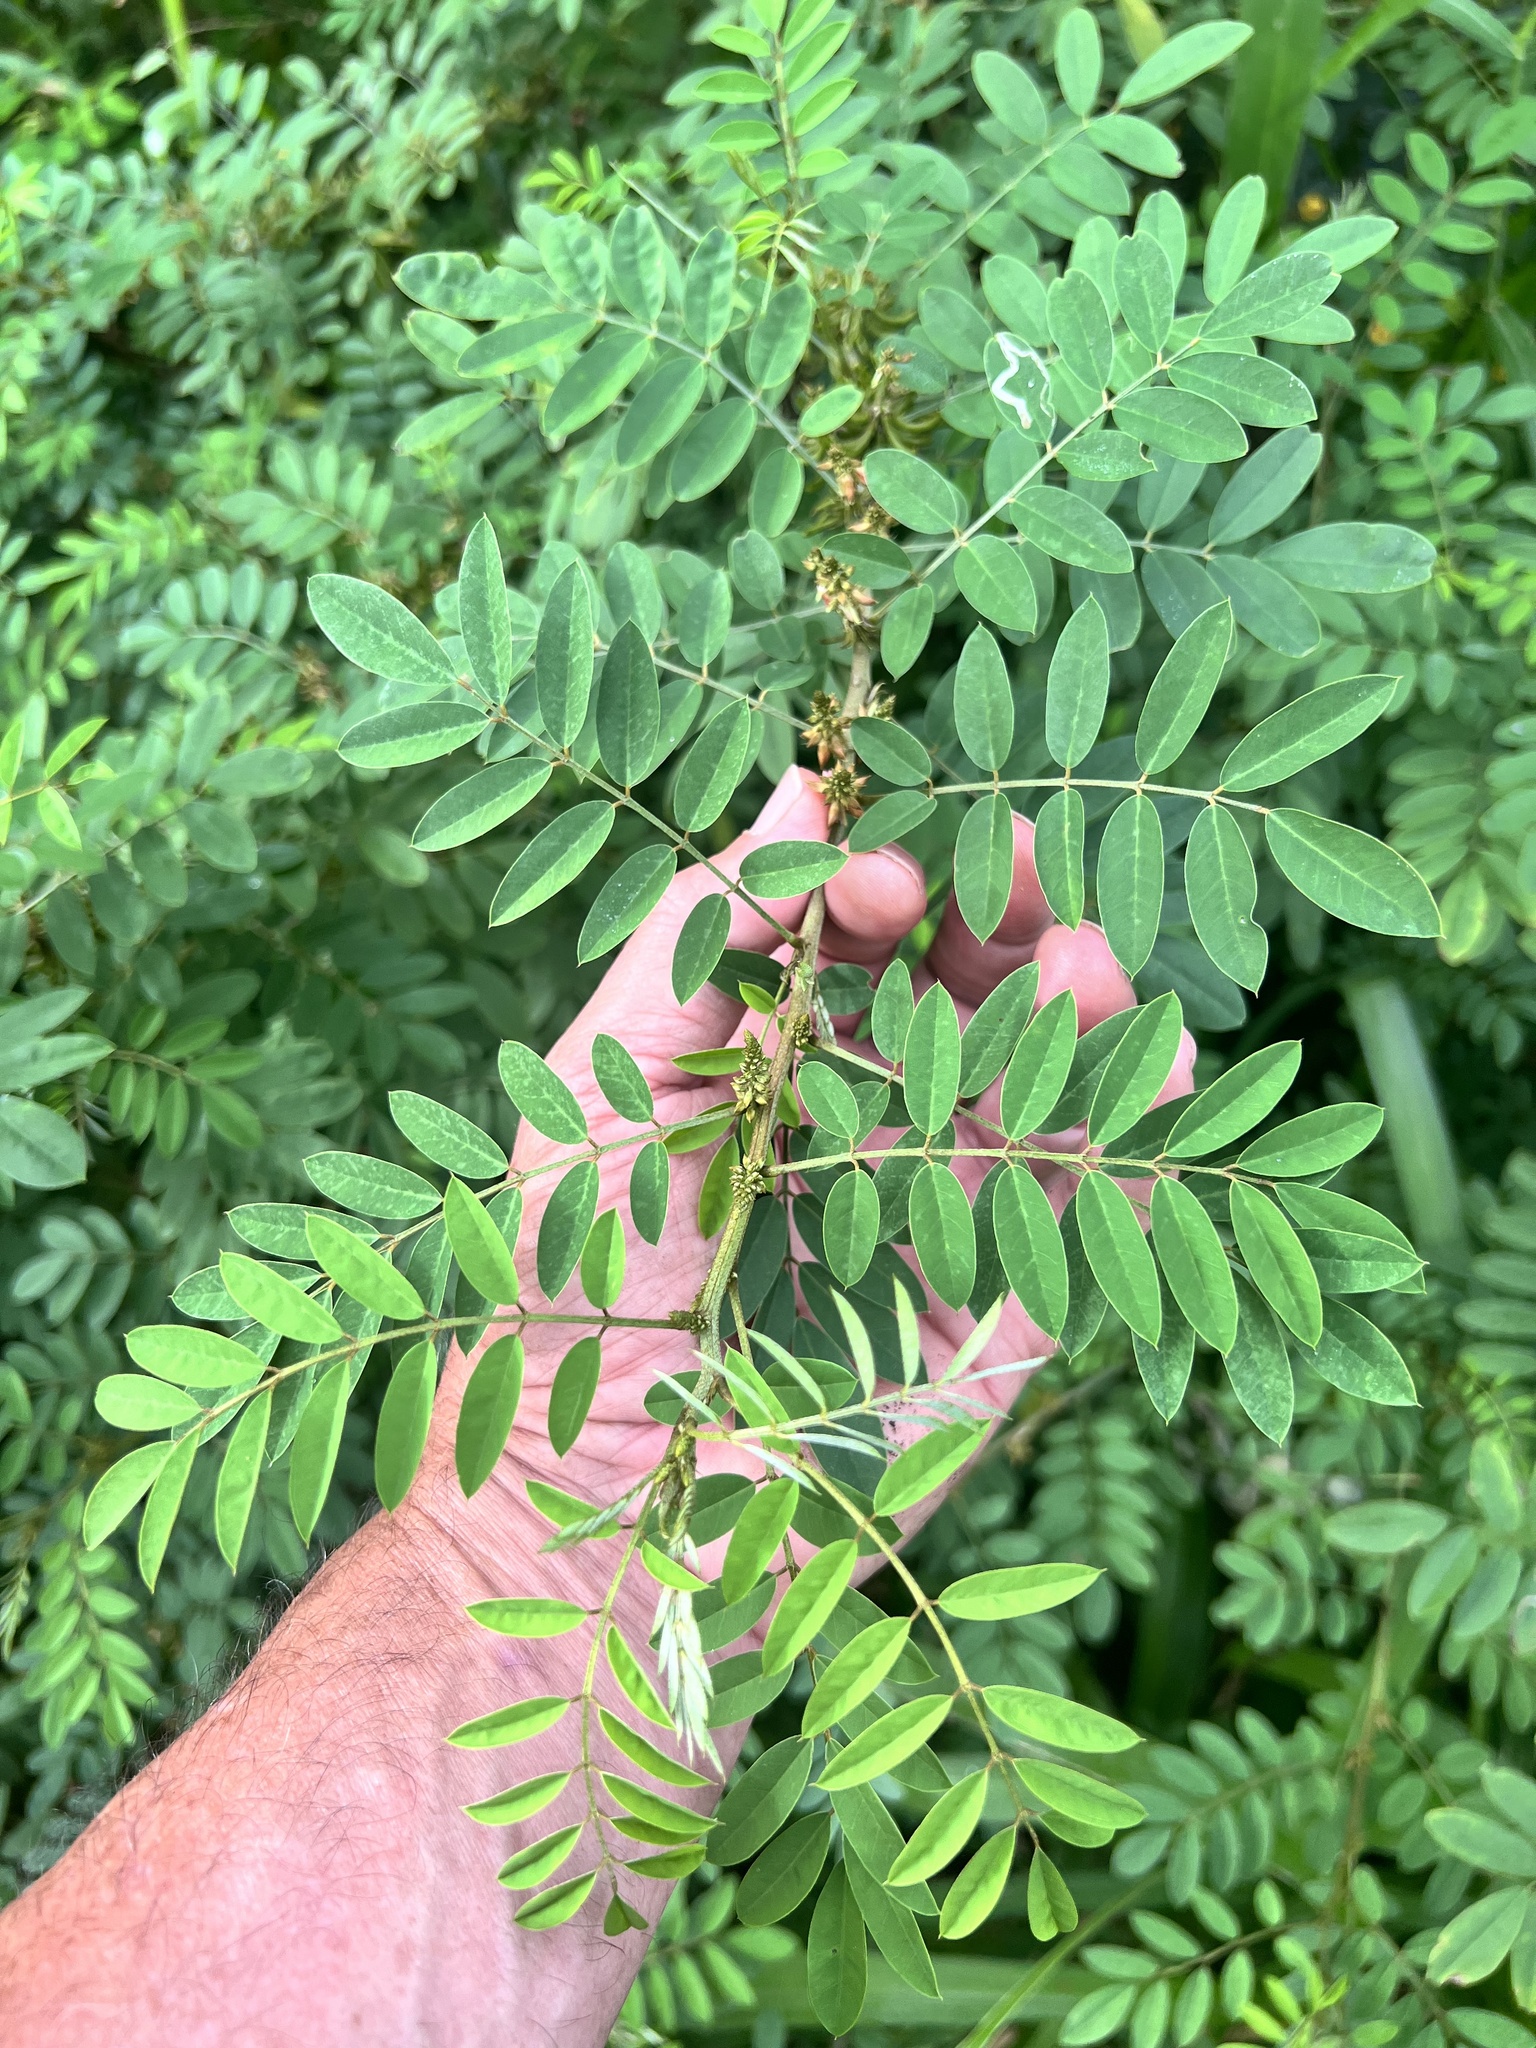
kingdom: Plantae
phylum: Tracheophyta
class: Magnoliopsida
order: Fabales
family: Fabaceae
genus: Indigofera
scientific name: Indigofera suffruticosa
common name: Anil de pasto
